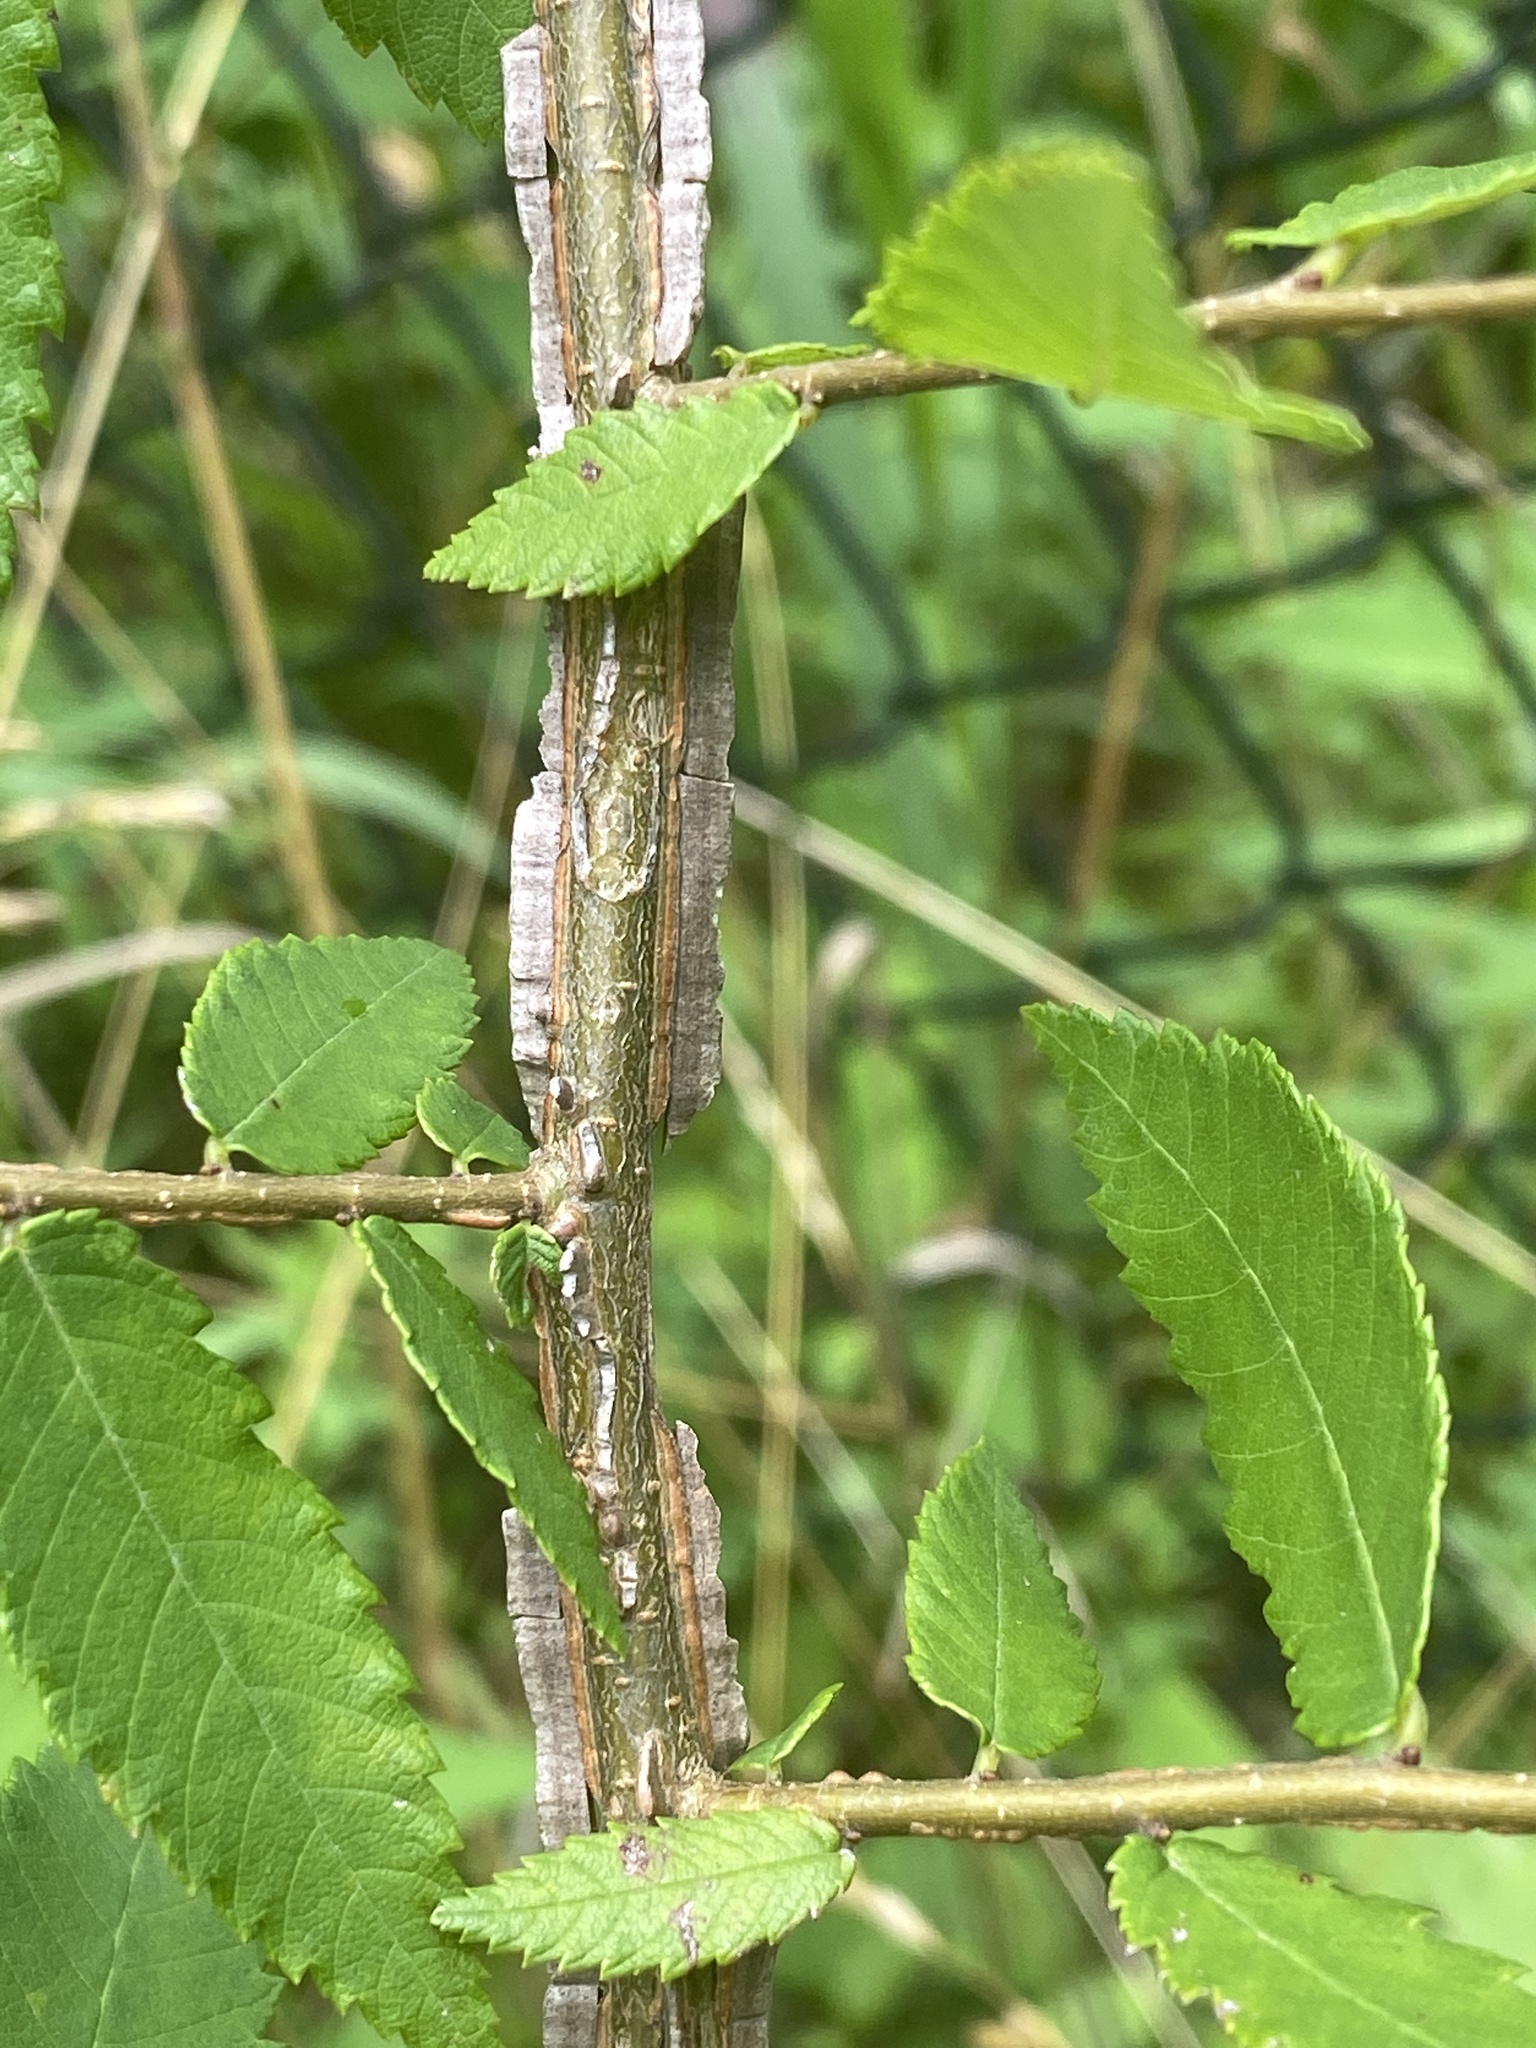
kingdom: Plantae
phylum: Tracheophyta
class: Magnoliopsida
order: Rosales
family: Ulmaceae
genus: Ulmus
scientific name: Ulmus alata
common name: Winged elm
